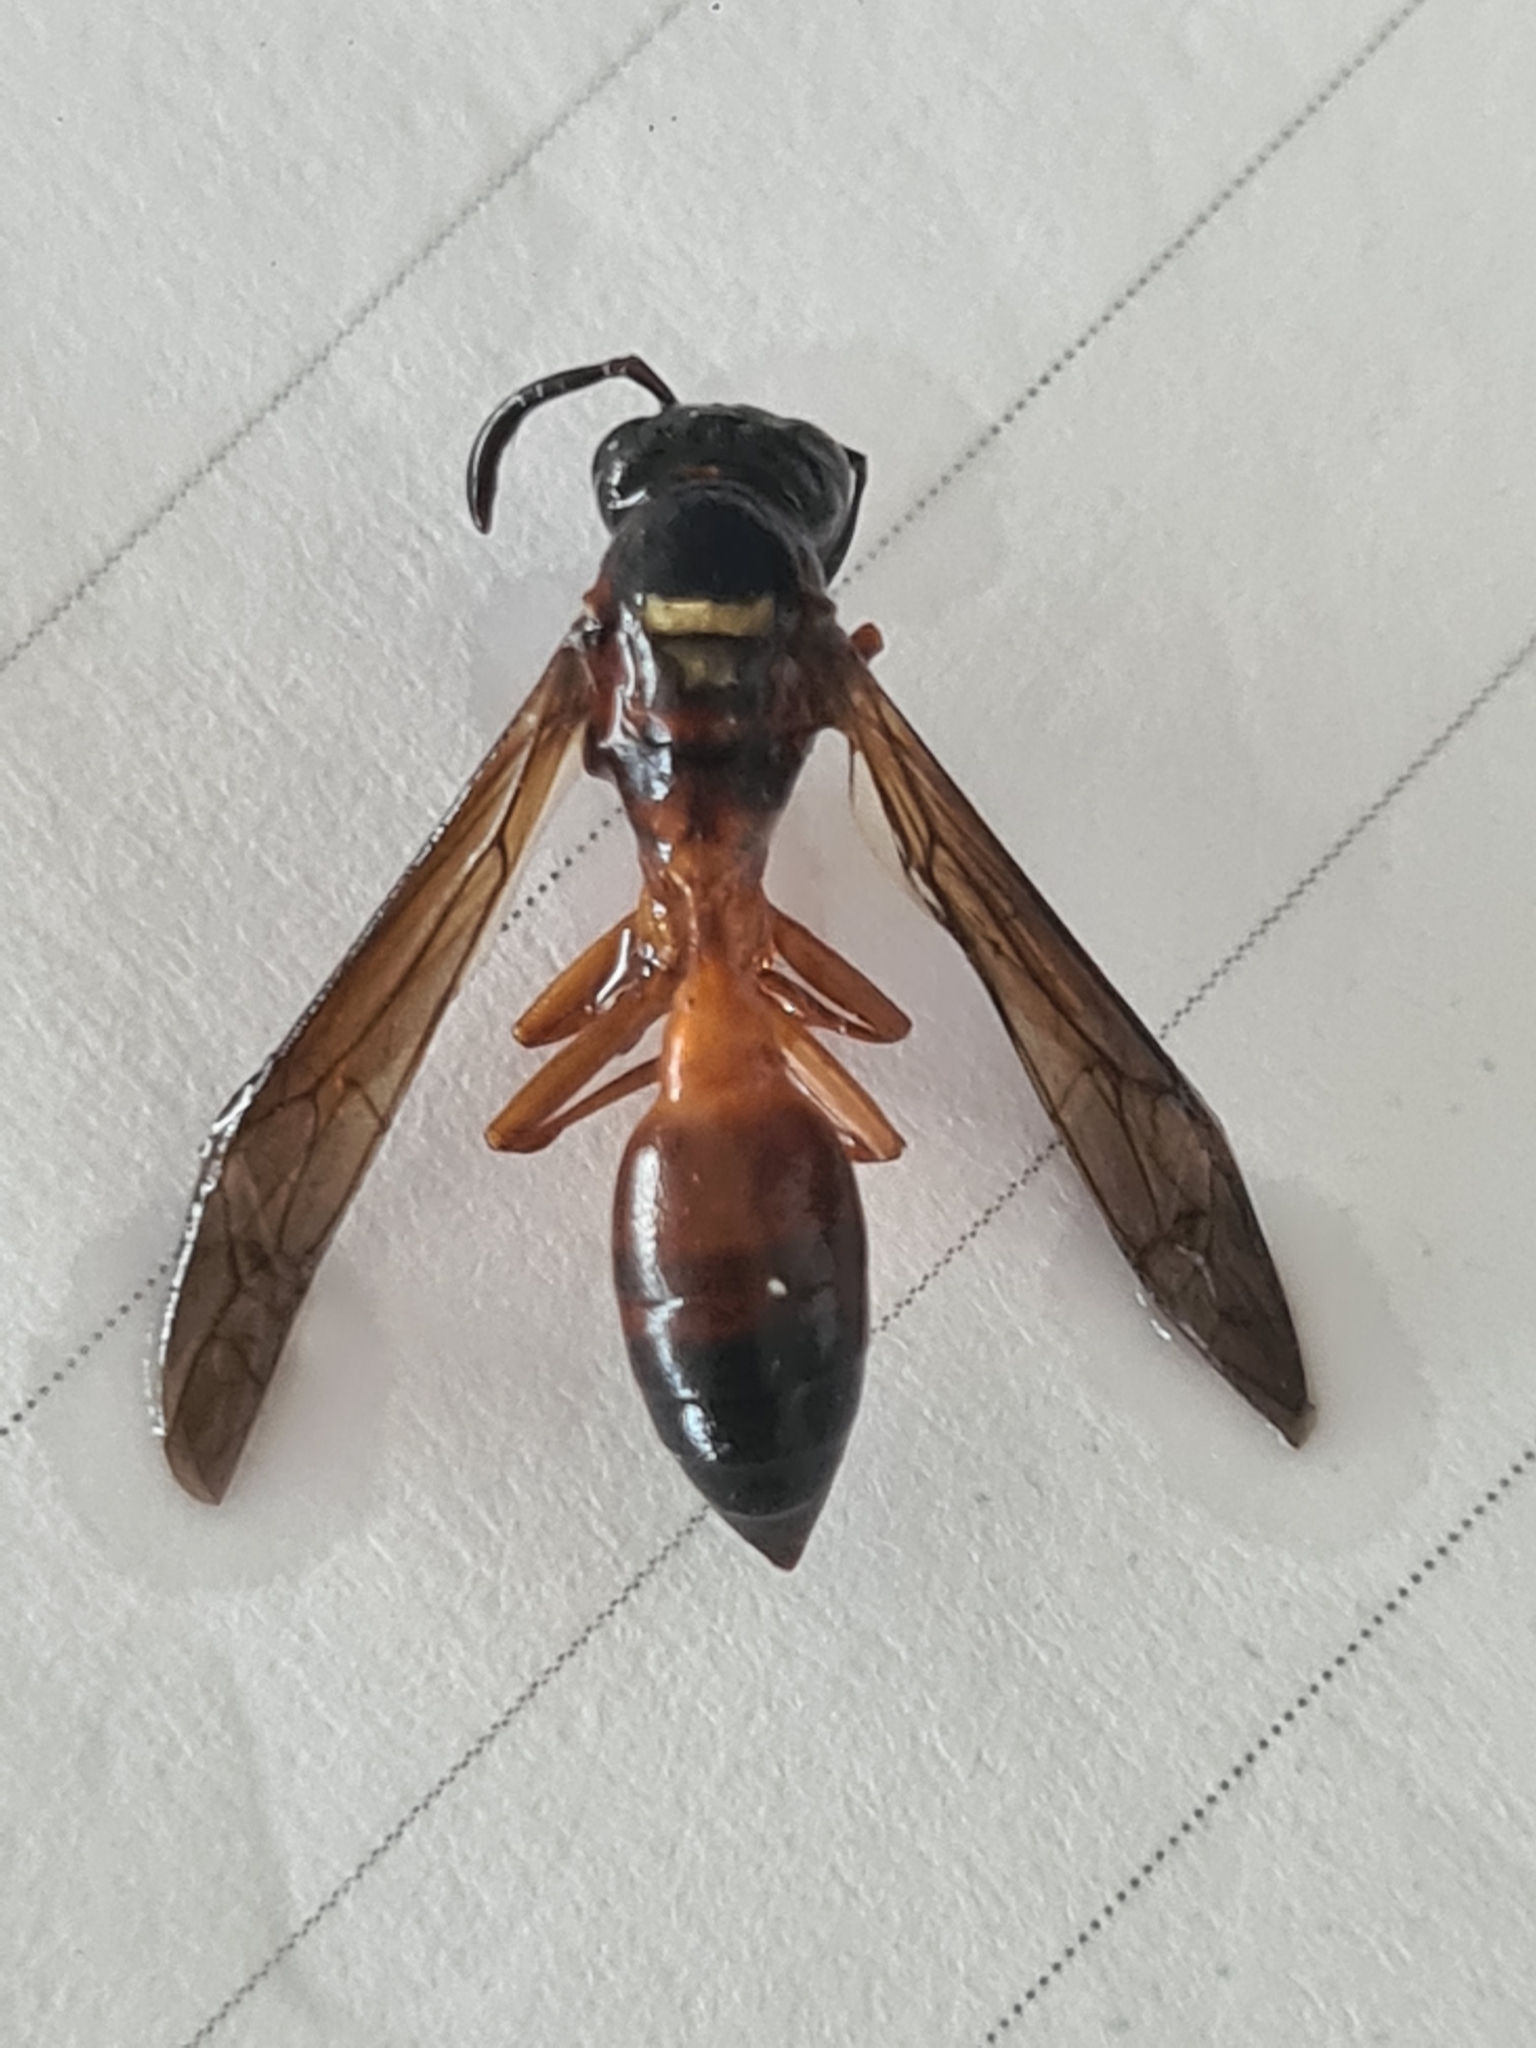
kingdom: Animalia
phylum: Arthropoda
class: Insecta
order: Hymenoptera
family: Vespidae
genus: Angiopolybia
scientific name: Angiopolybia
